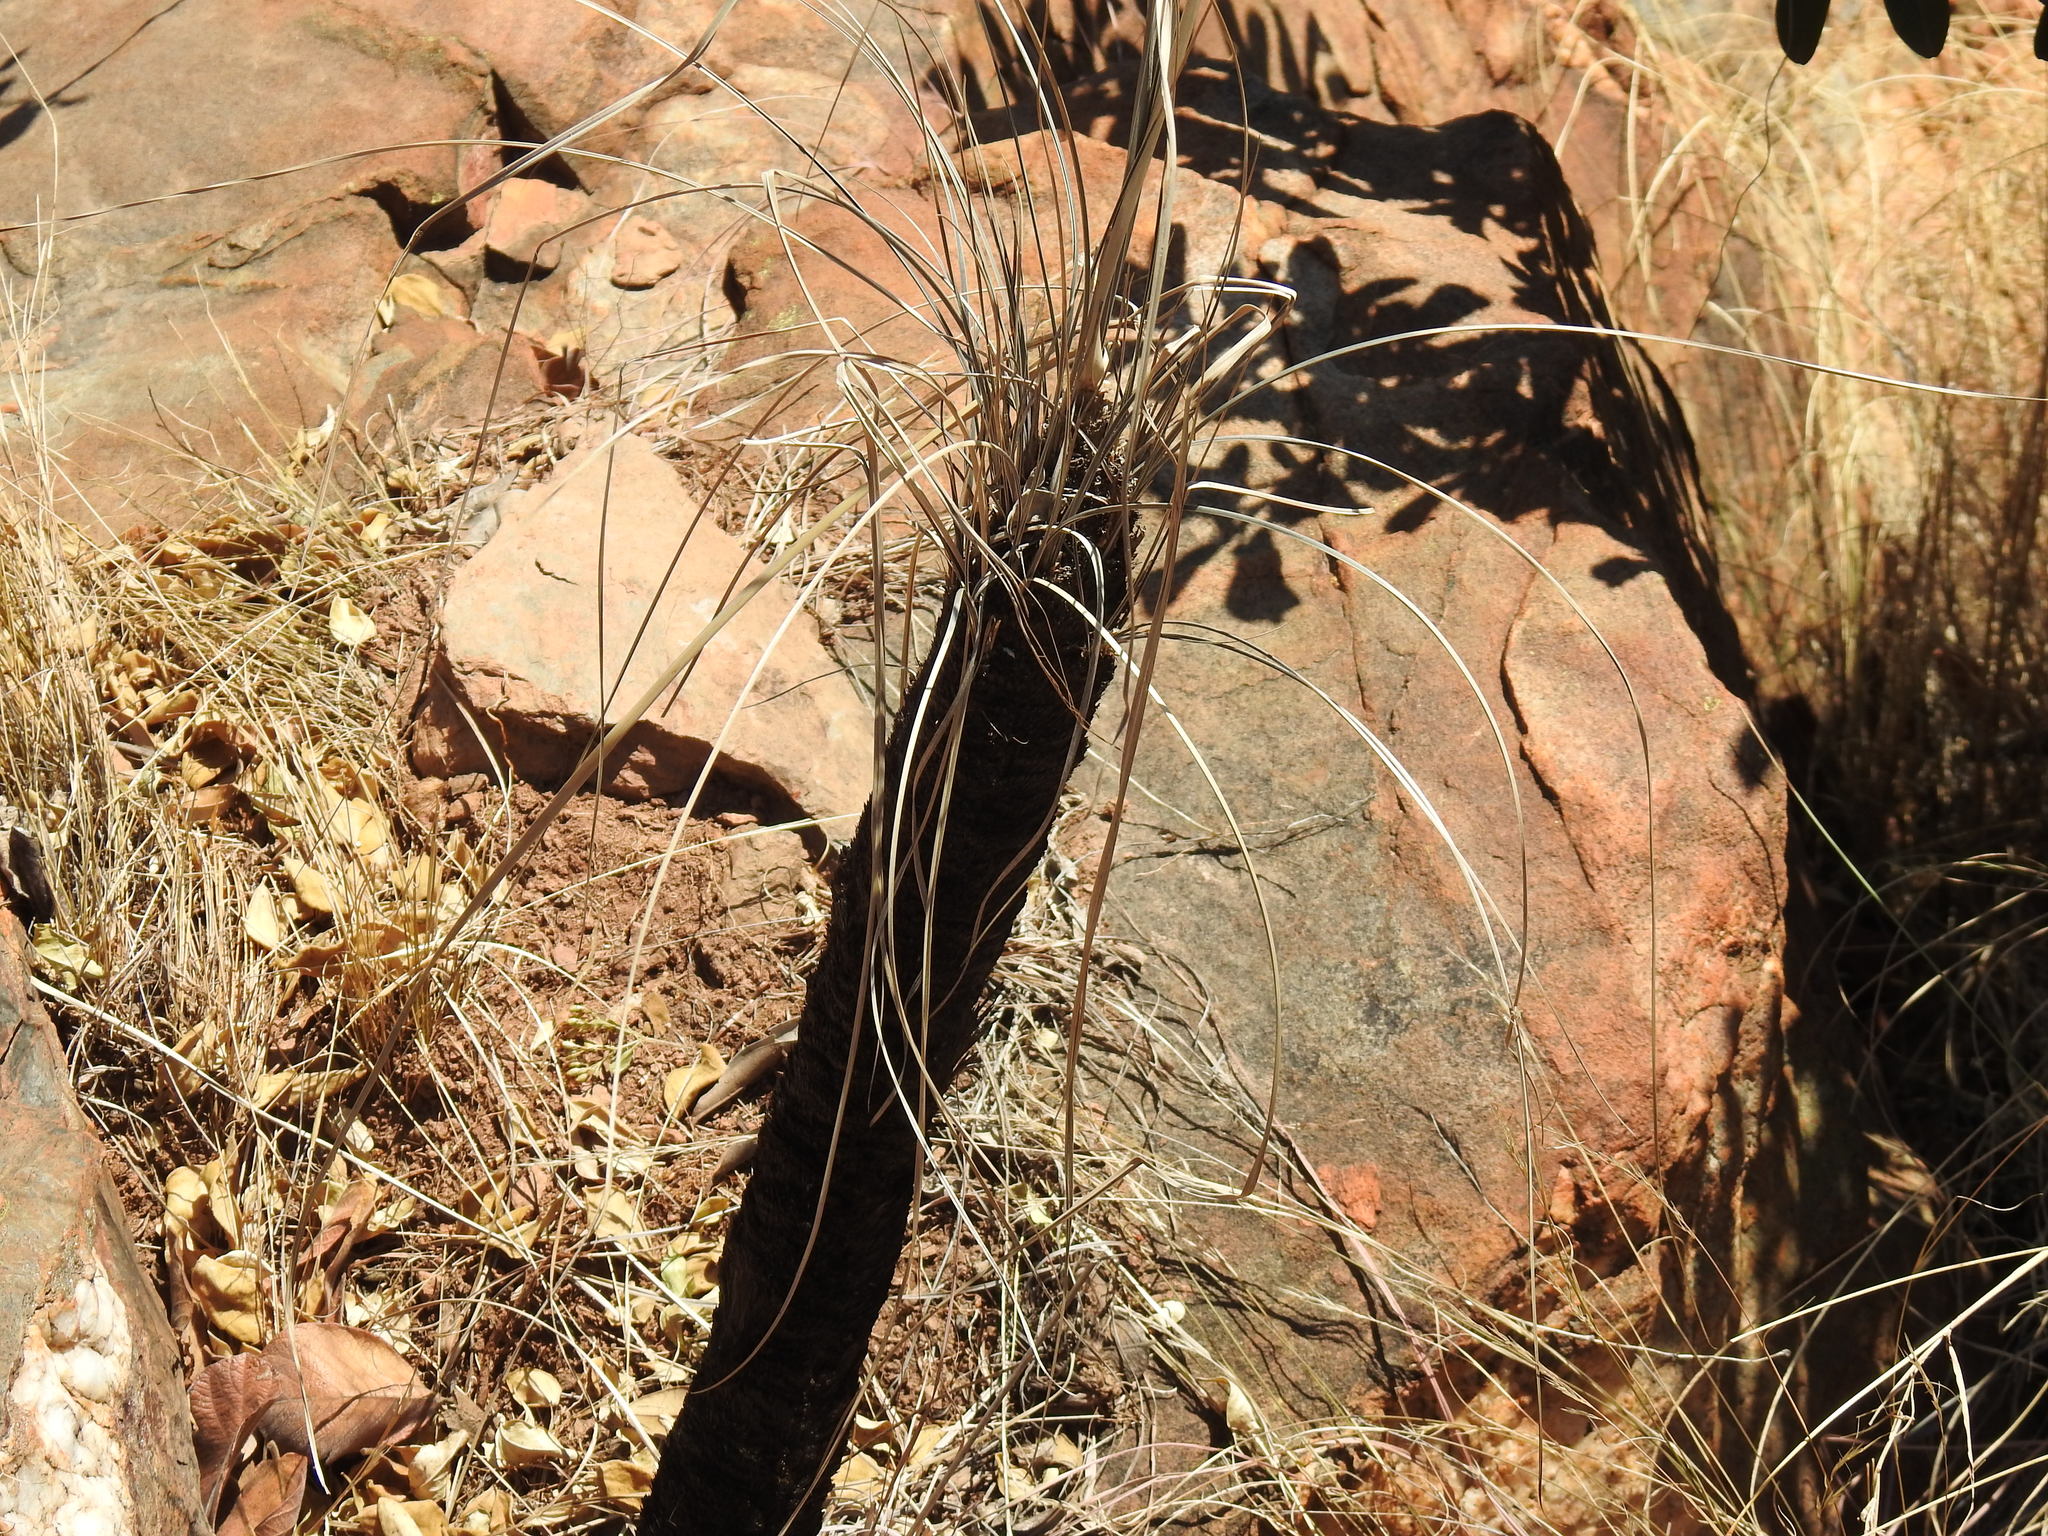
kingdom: Plantae
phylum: Tracheophyta
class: Liliopsida
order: Pandanales
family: Velloziaceae
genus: Xerophyta
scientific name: Xerophyta retinervis
